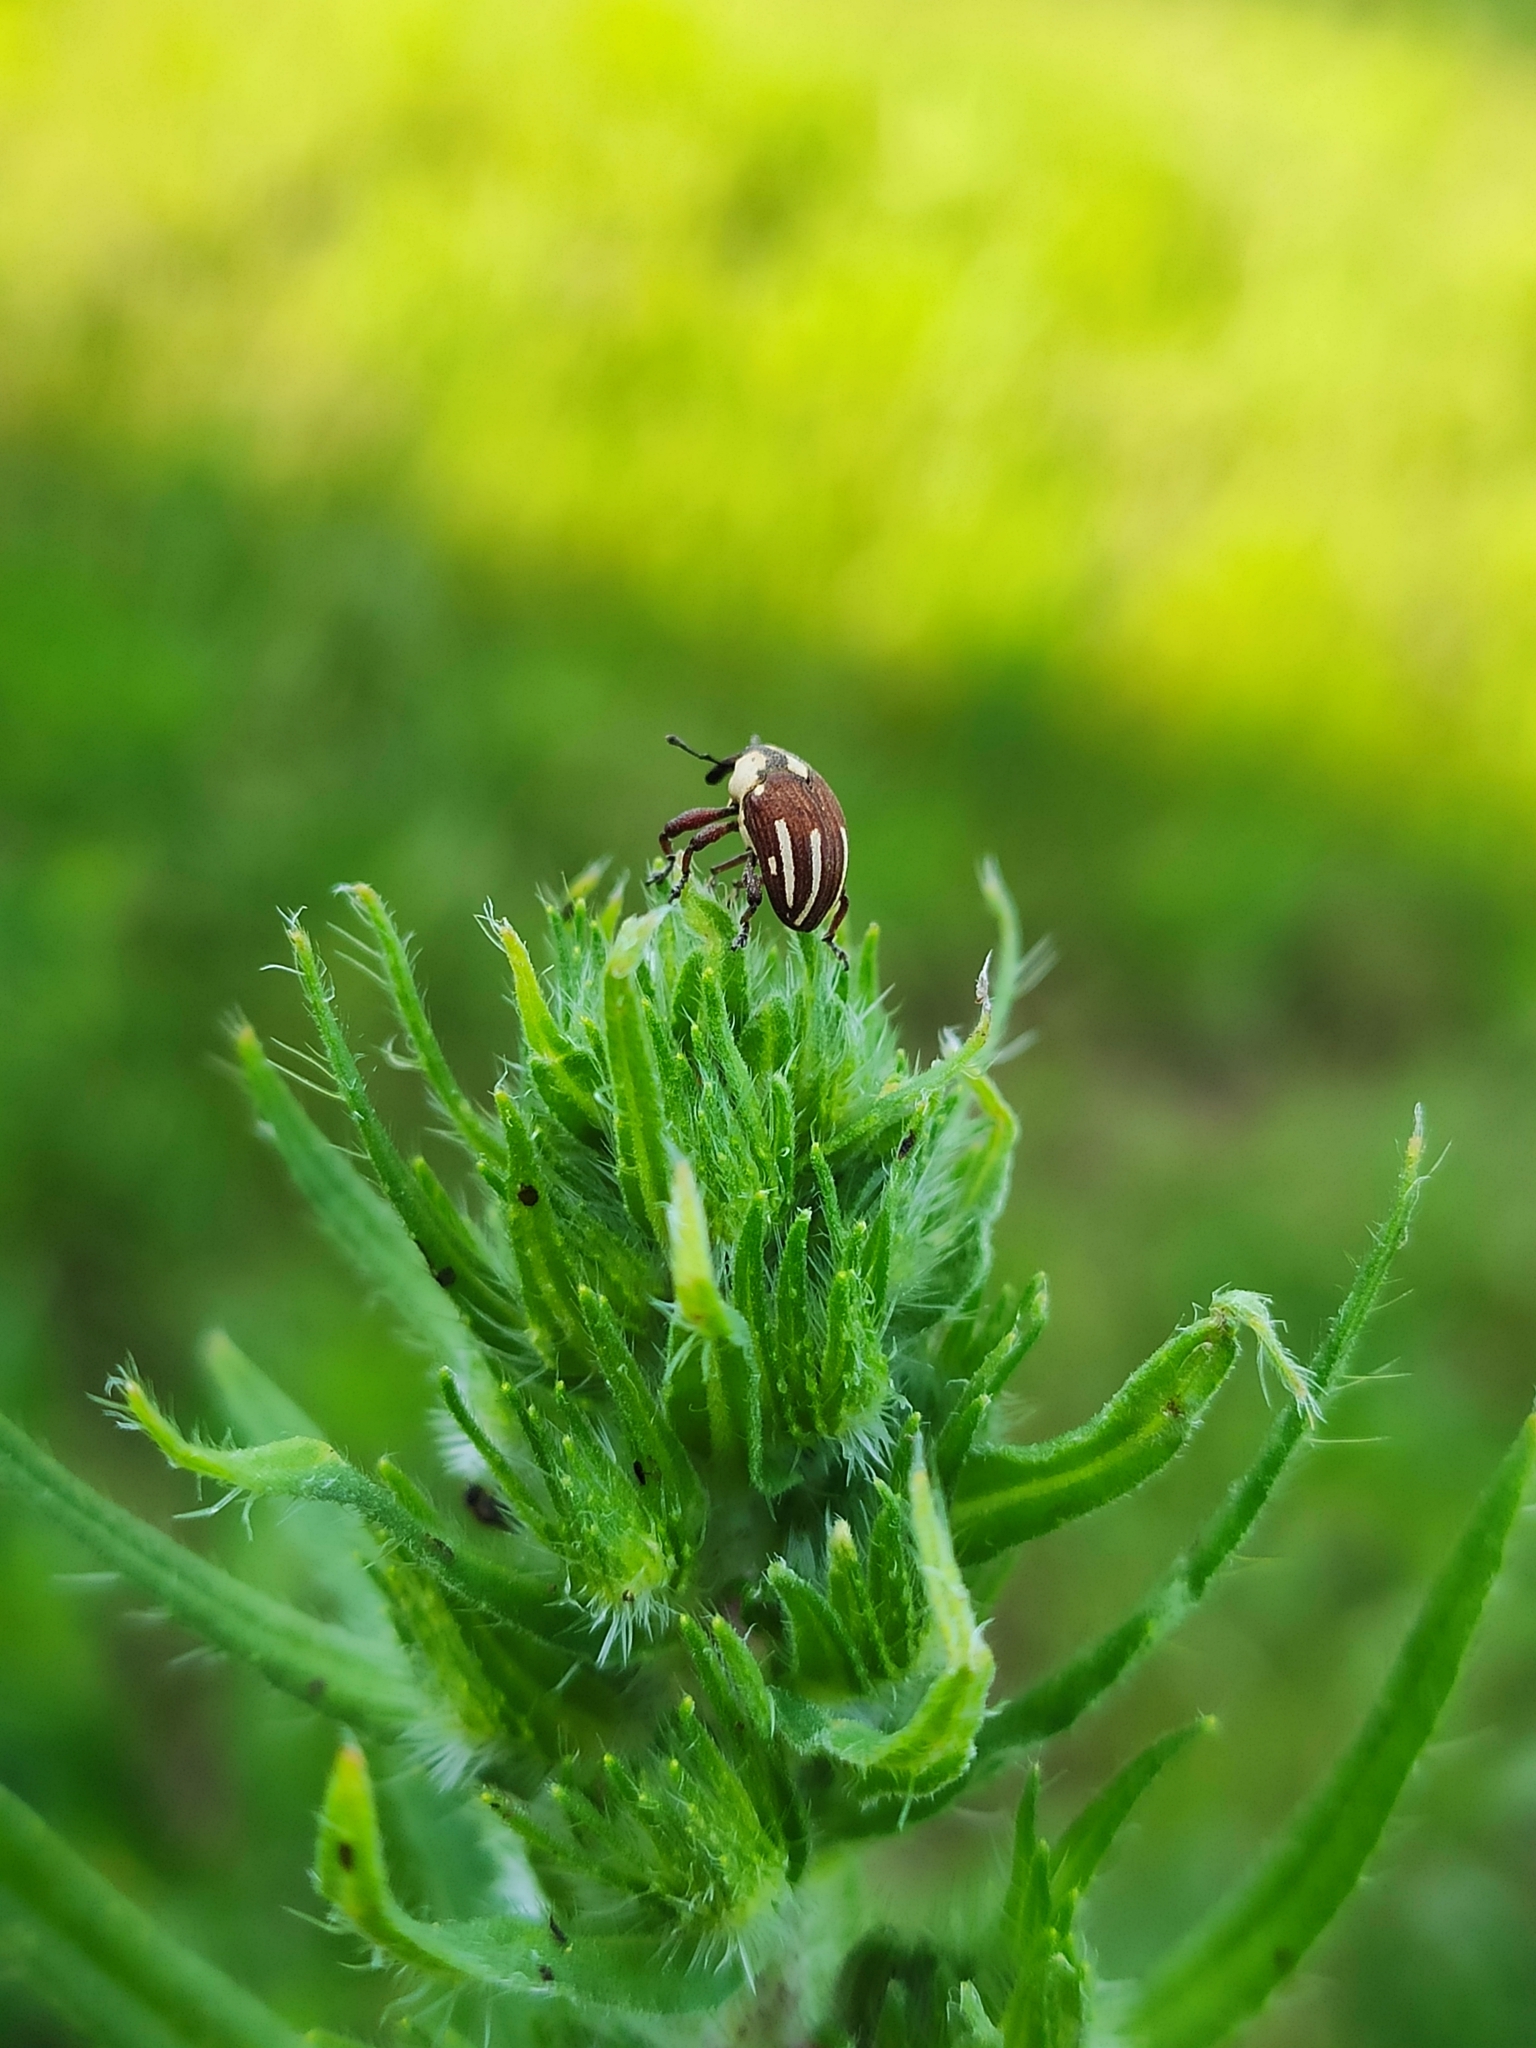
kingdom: Animalia
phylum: Arthropoda
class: Insecta
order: Coleoptera
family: Curculionidae
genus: Sternuchopsis
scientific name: Sternuchopsis
